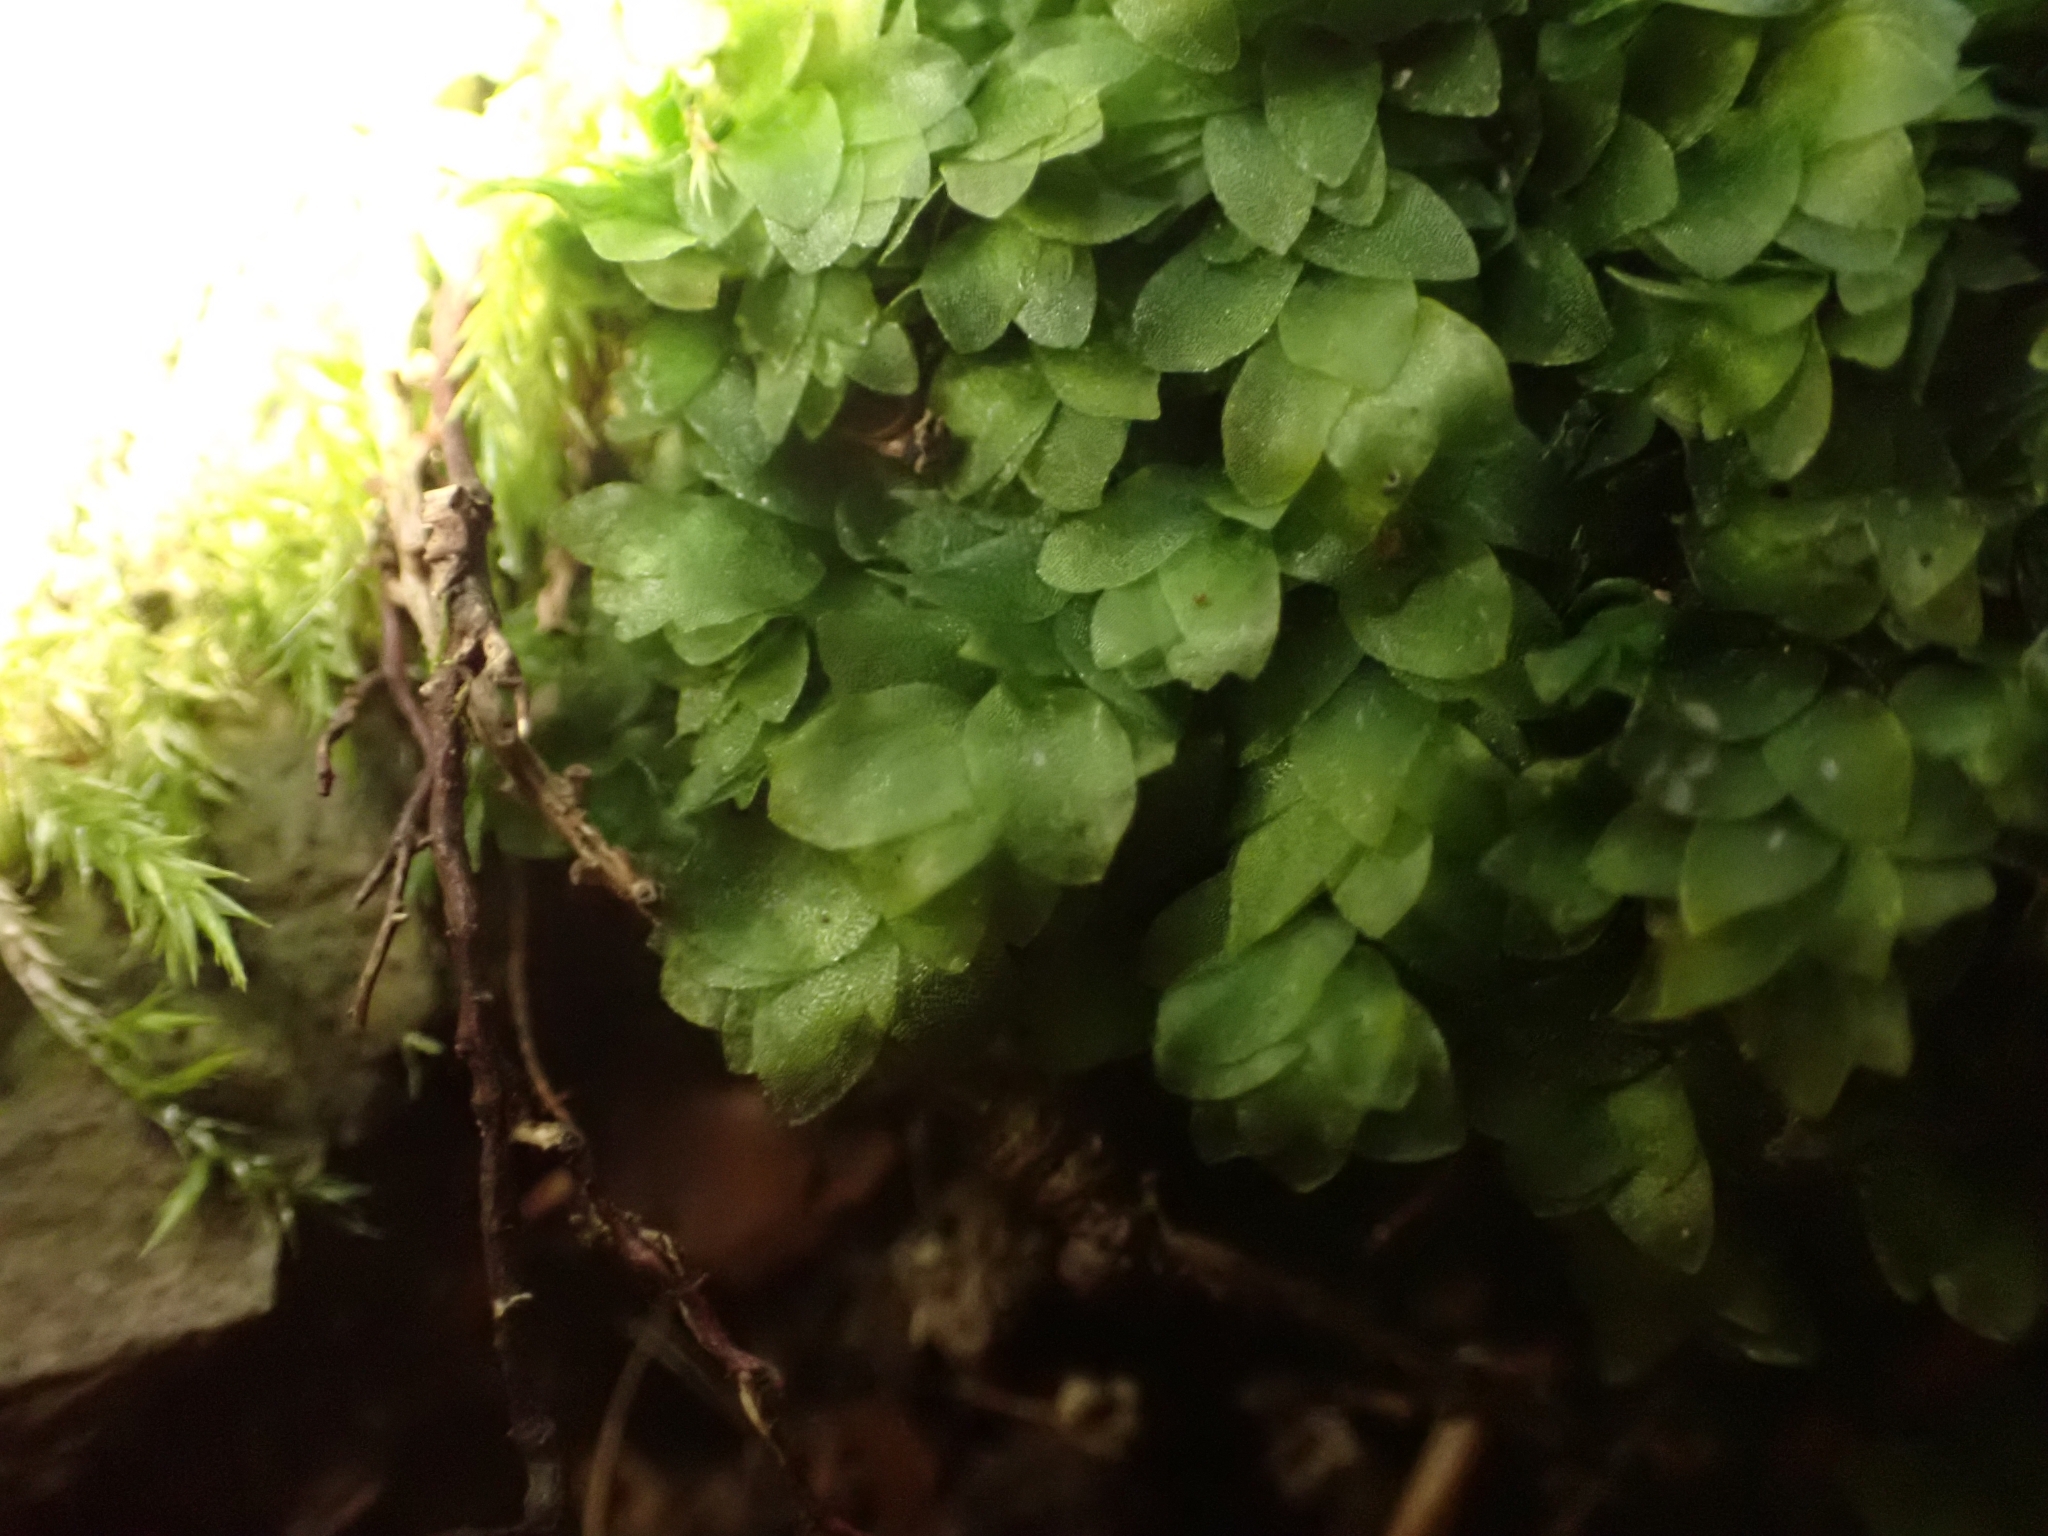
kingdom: Plantae
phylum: Bryophyta
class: Bryopsida
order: Hookeriales
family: Hookeriaceae
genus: Hookeria
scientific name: Hookeria lucens
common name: Shining hookeria
